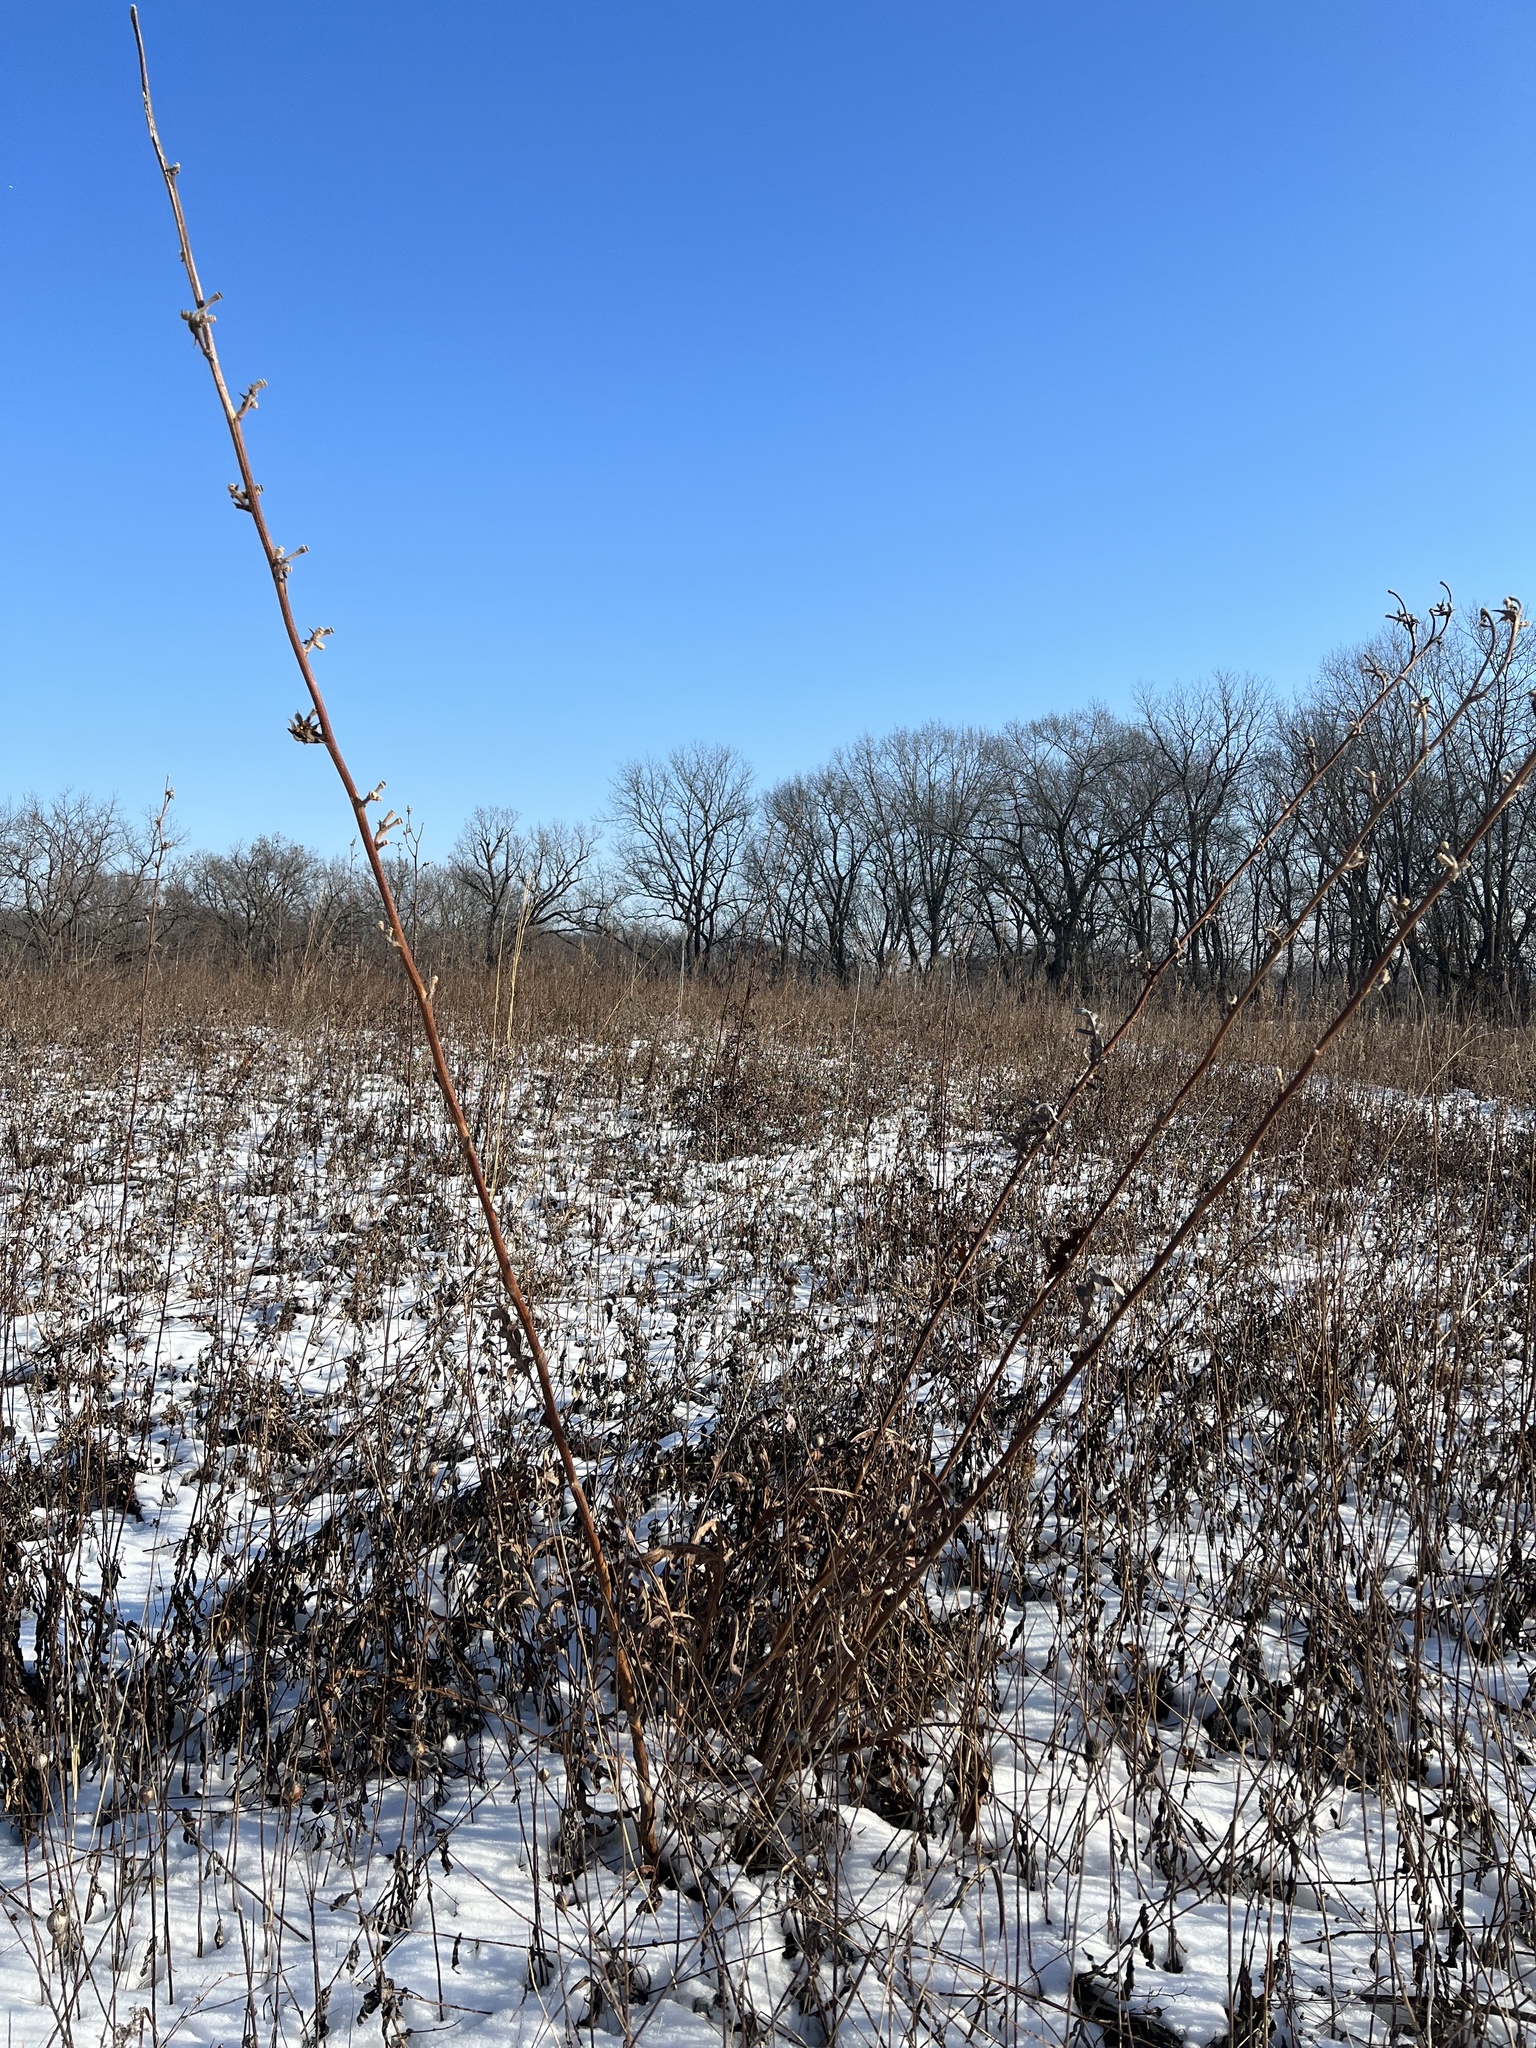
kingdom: Plantae
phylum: Tracheophyta
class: Magnoliopsida
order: Asterales
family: Asteraceae
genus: Silphium
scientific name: Silphium laciniatum
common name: Polarplant
